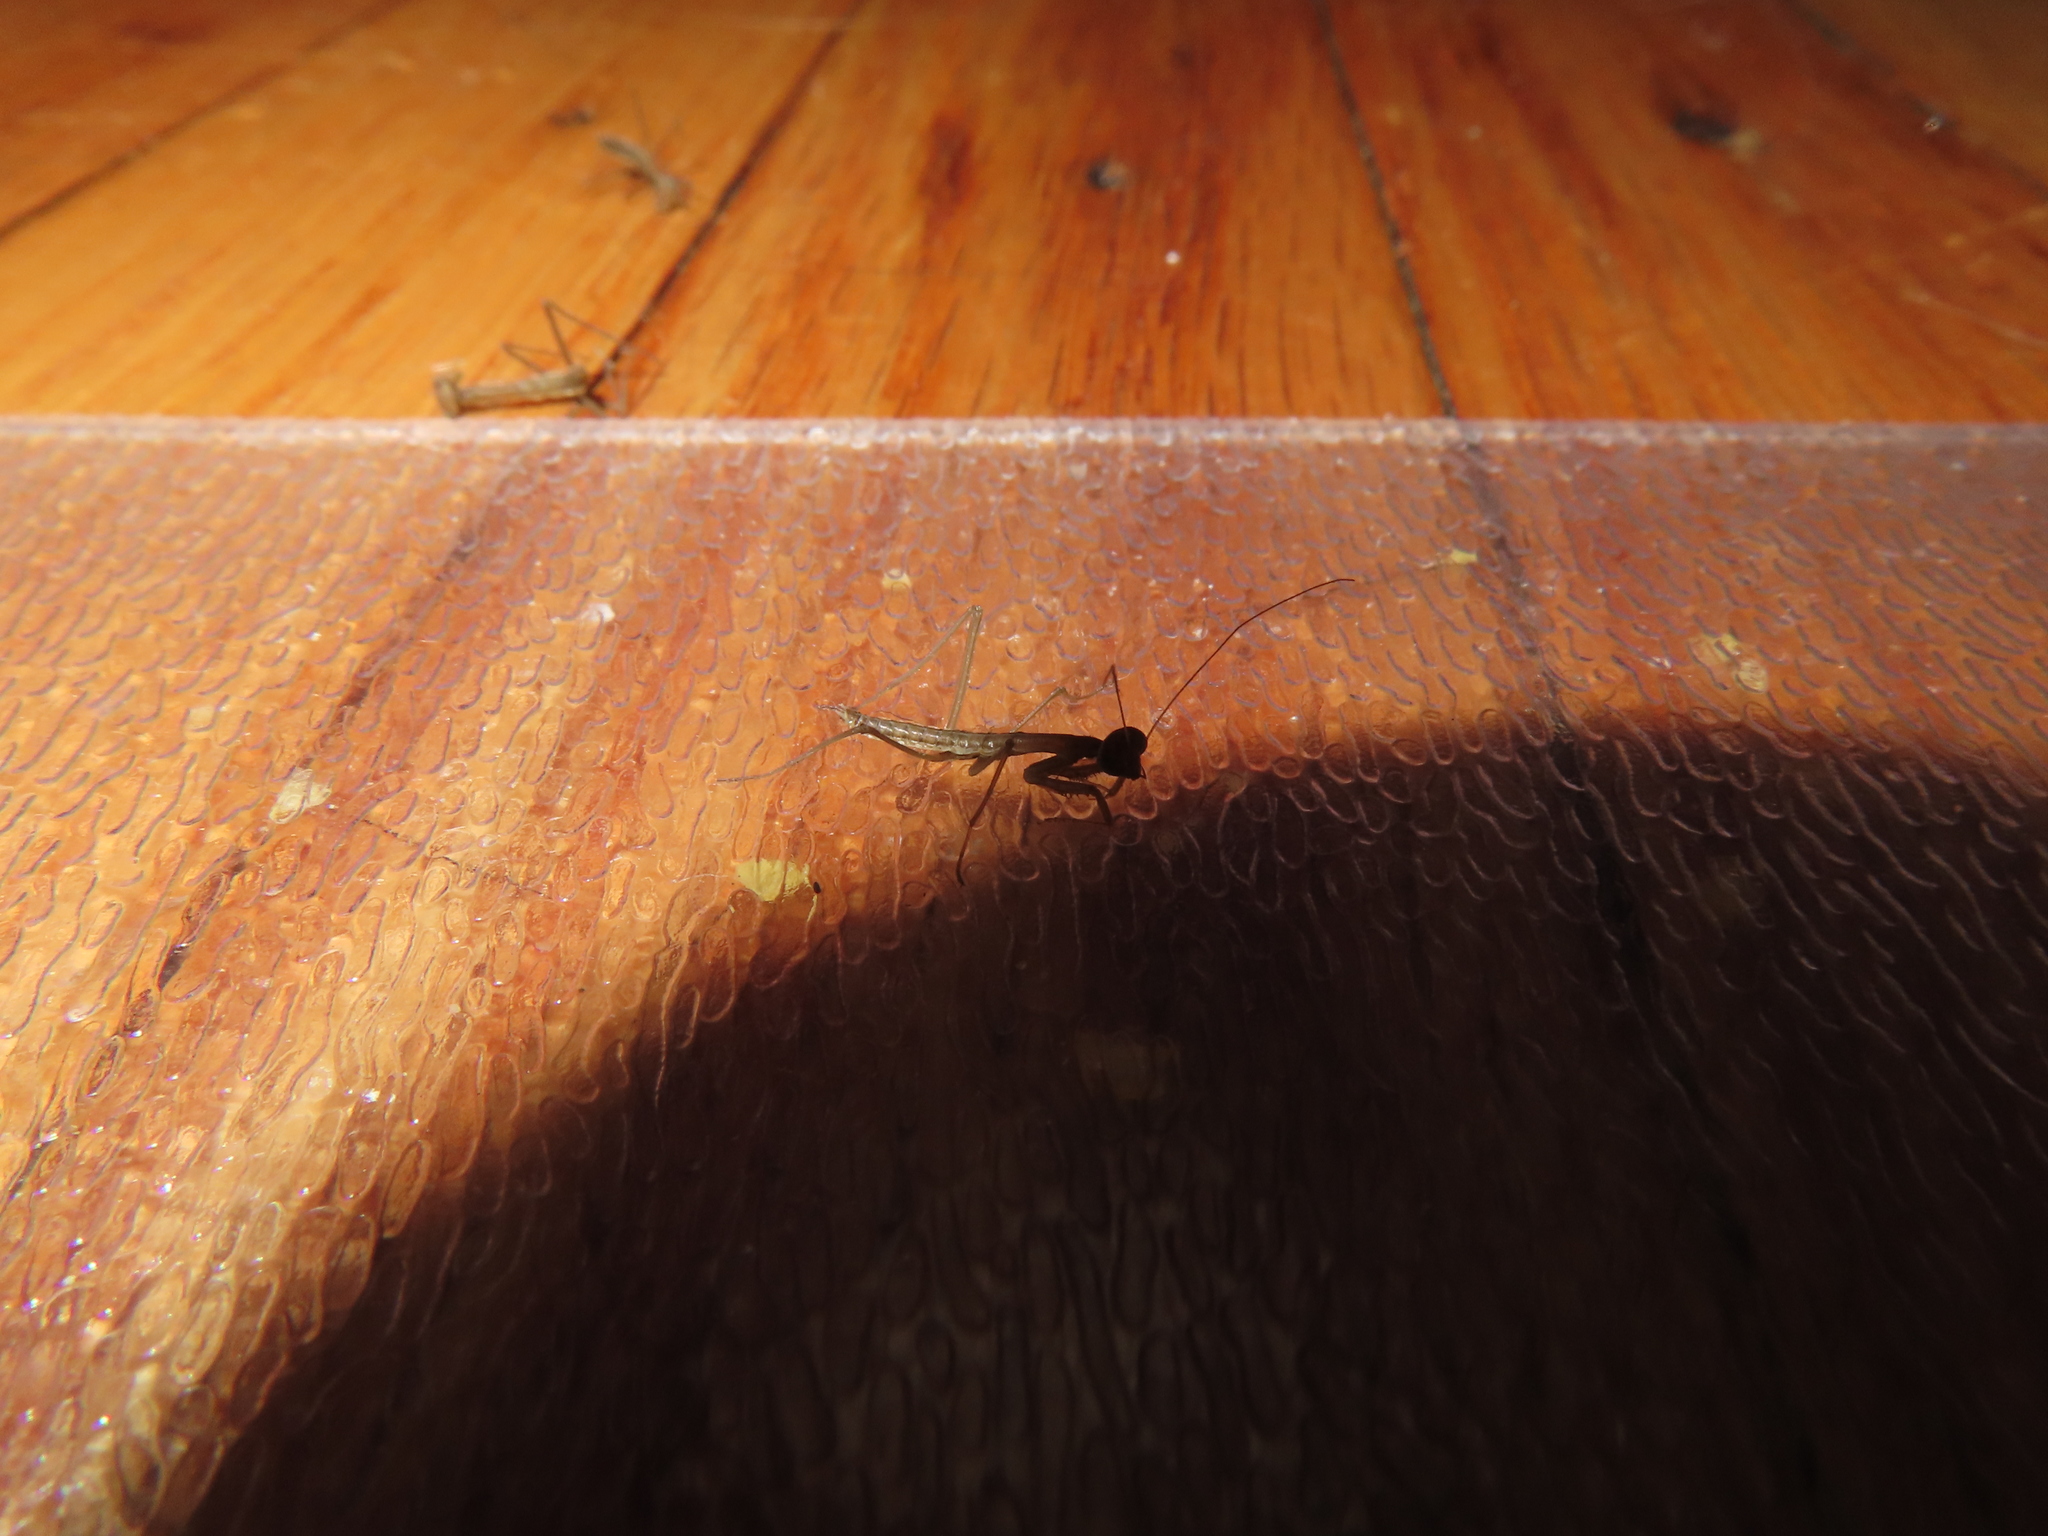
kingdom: Animalia
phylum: Arthropoda
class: Insecta
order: Mantodea
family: Mantidae
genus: Tenodera
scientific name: Tenodera sinensis
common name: Chinese mantis
